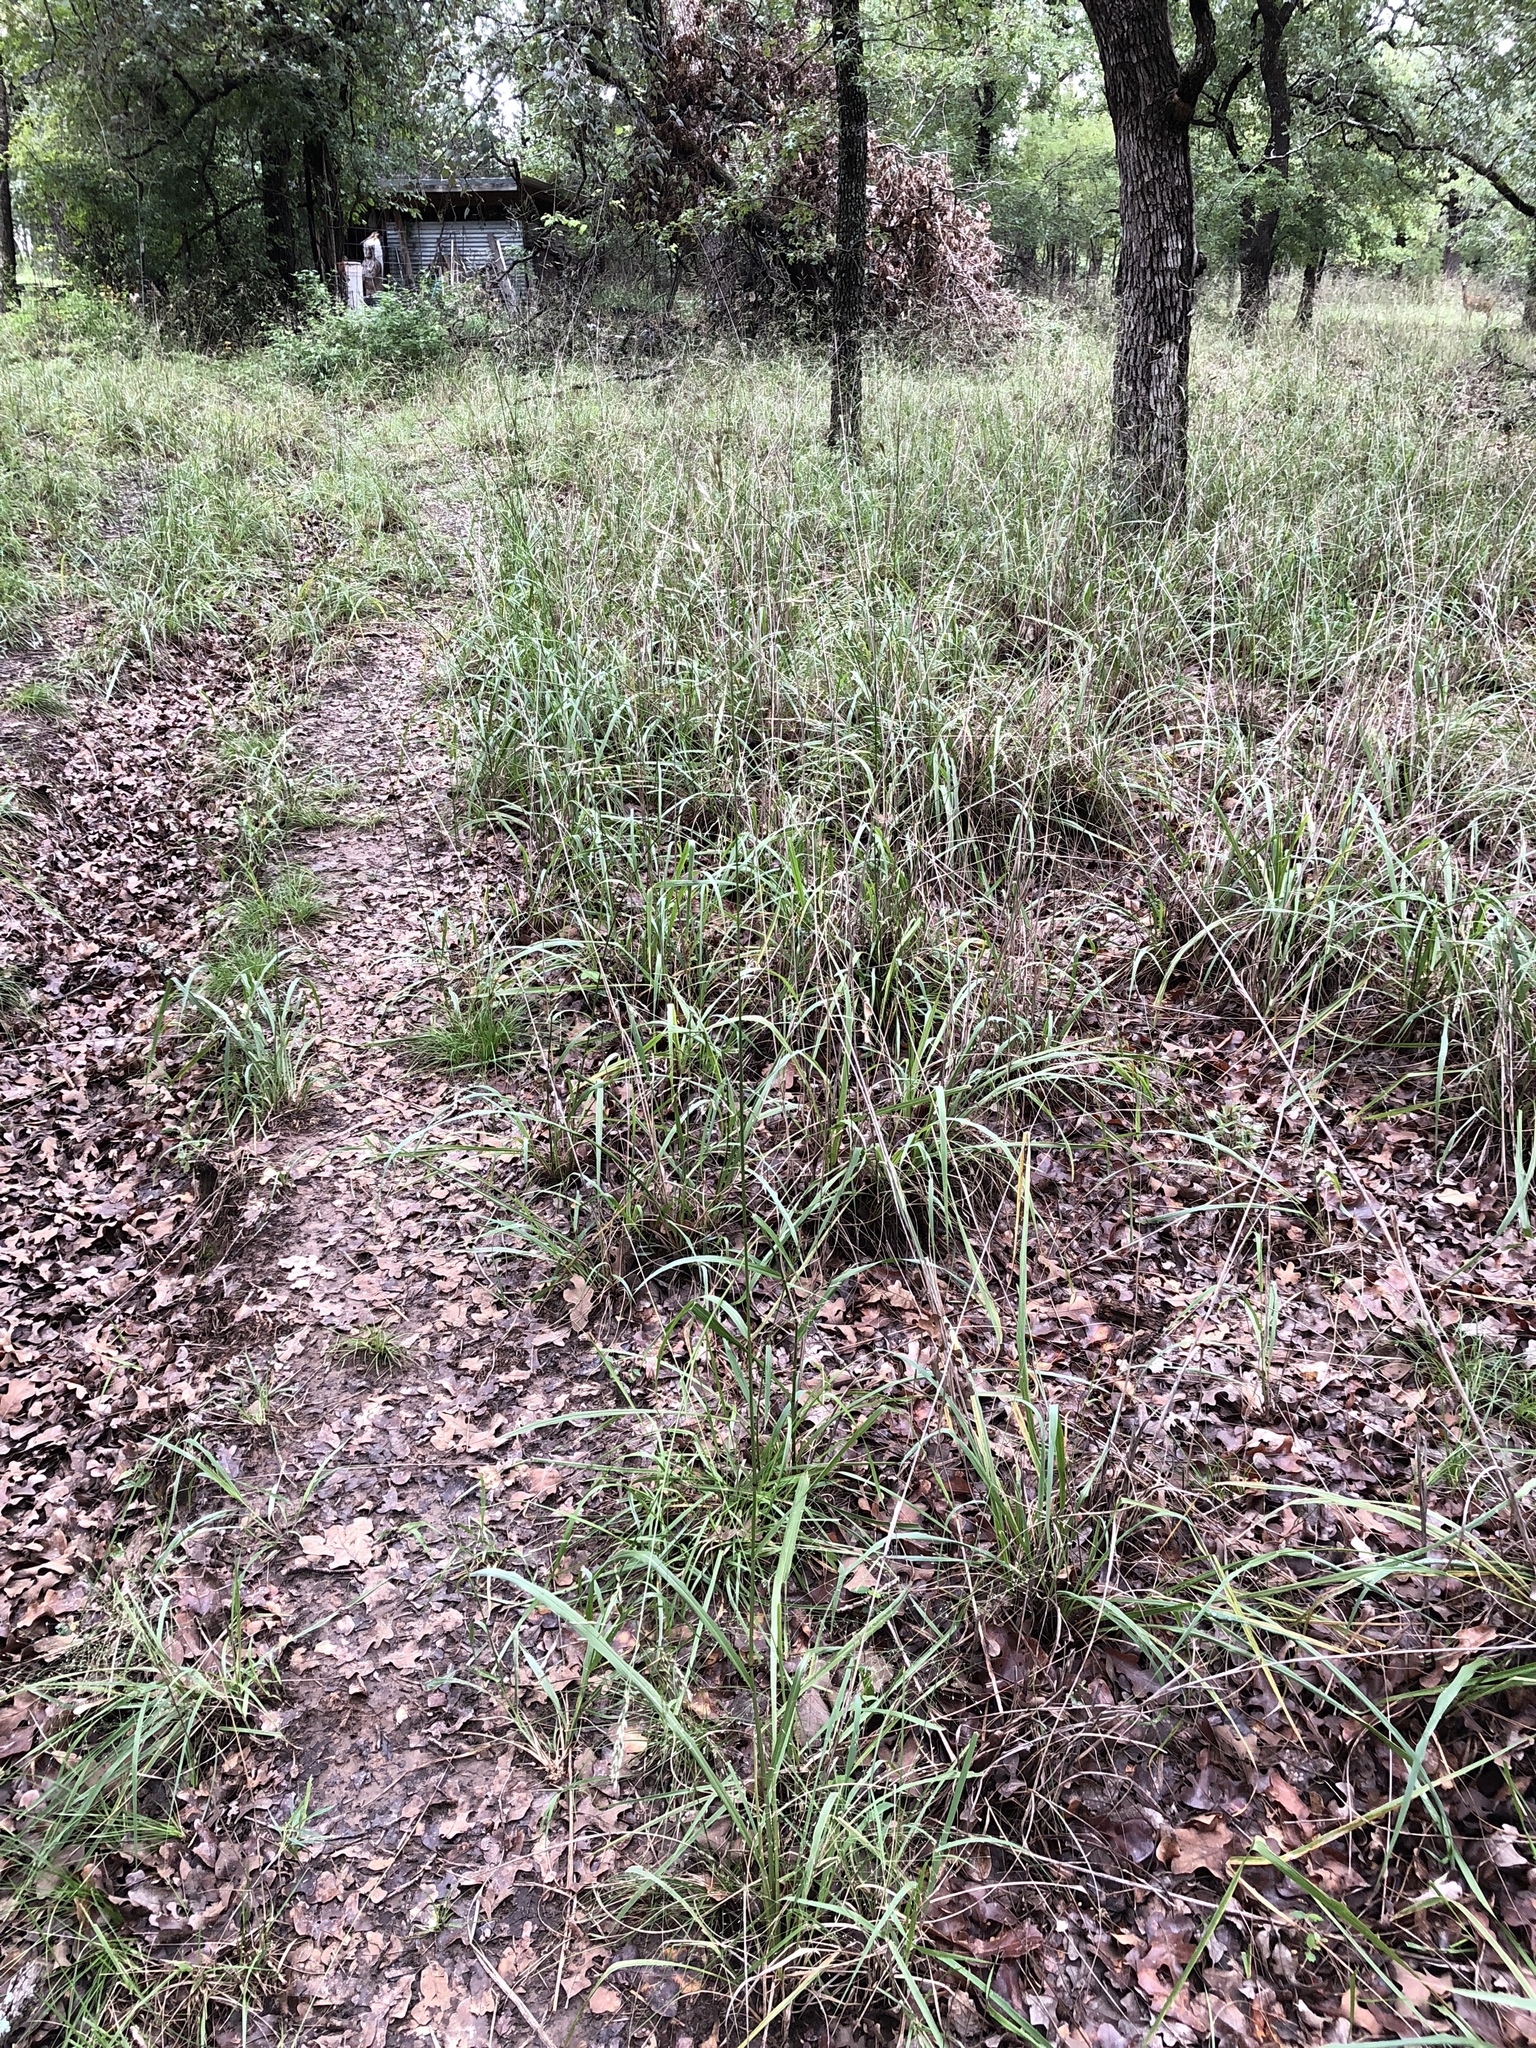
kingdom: Plantae
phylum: Tracheophyta
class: Liliopsida
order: Poales
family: Poaceae
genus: Tridens
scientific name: Tridens flavus
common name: Purpletop
